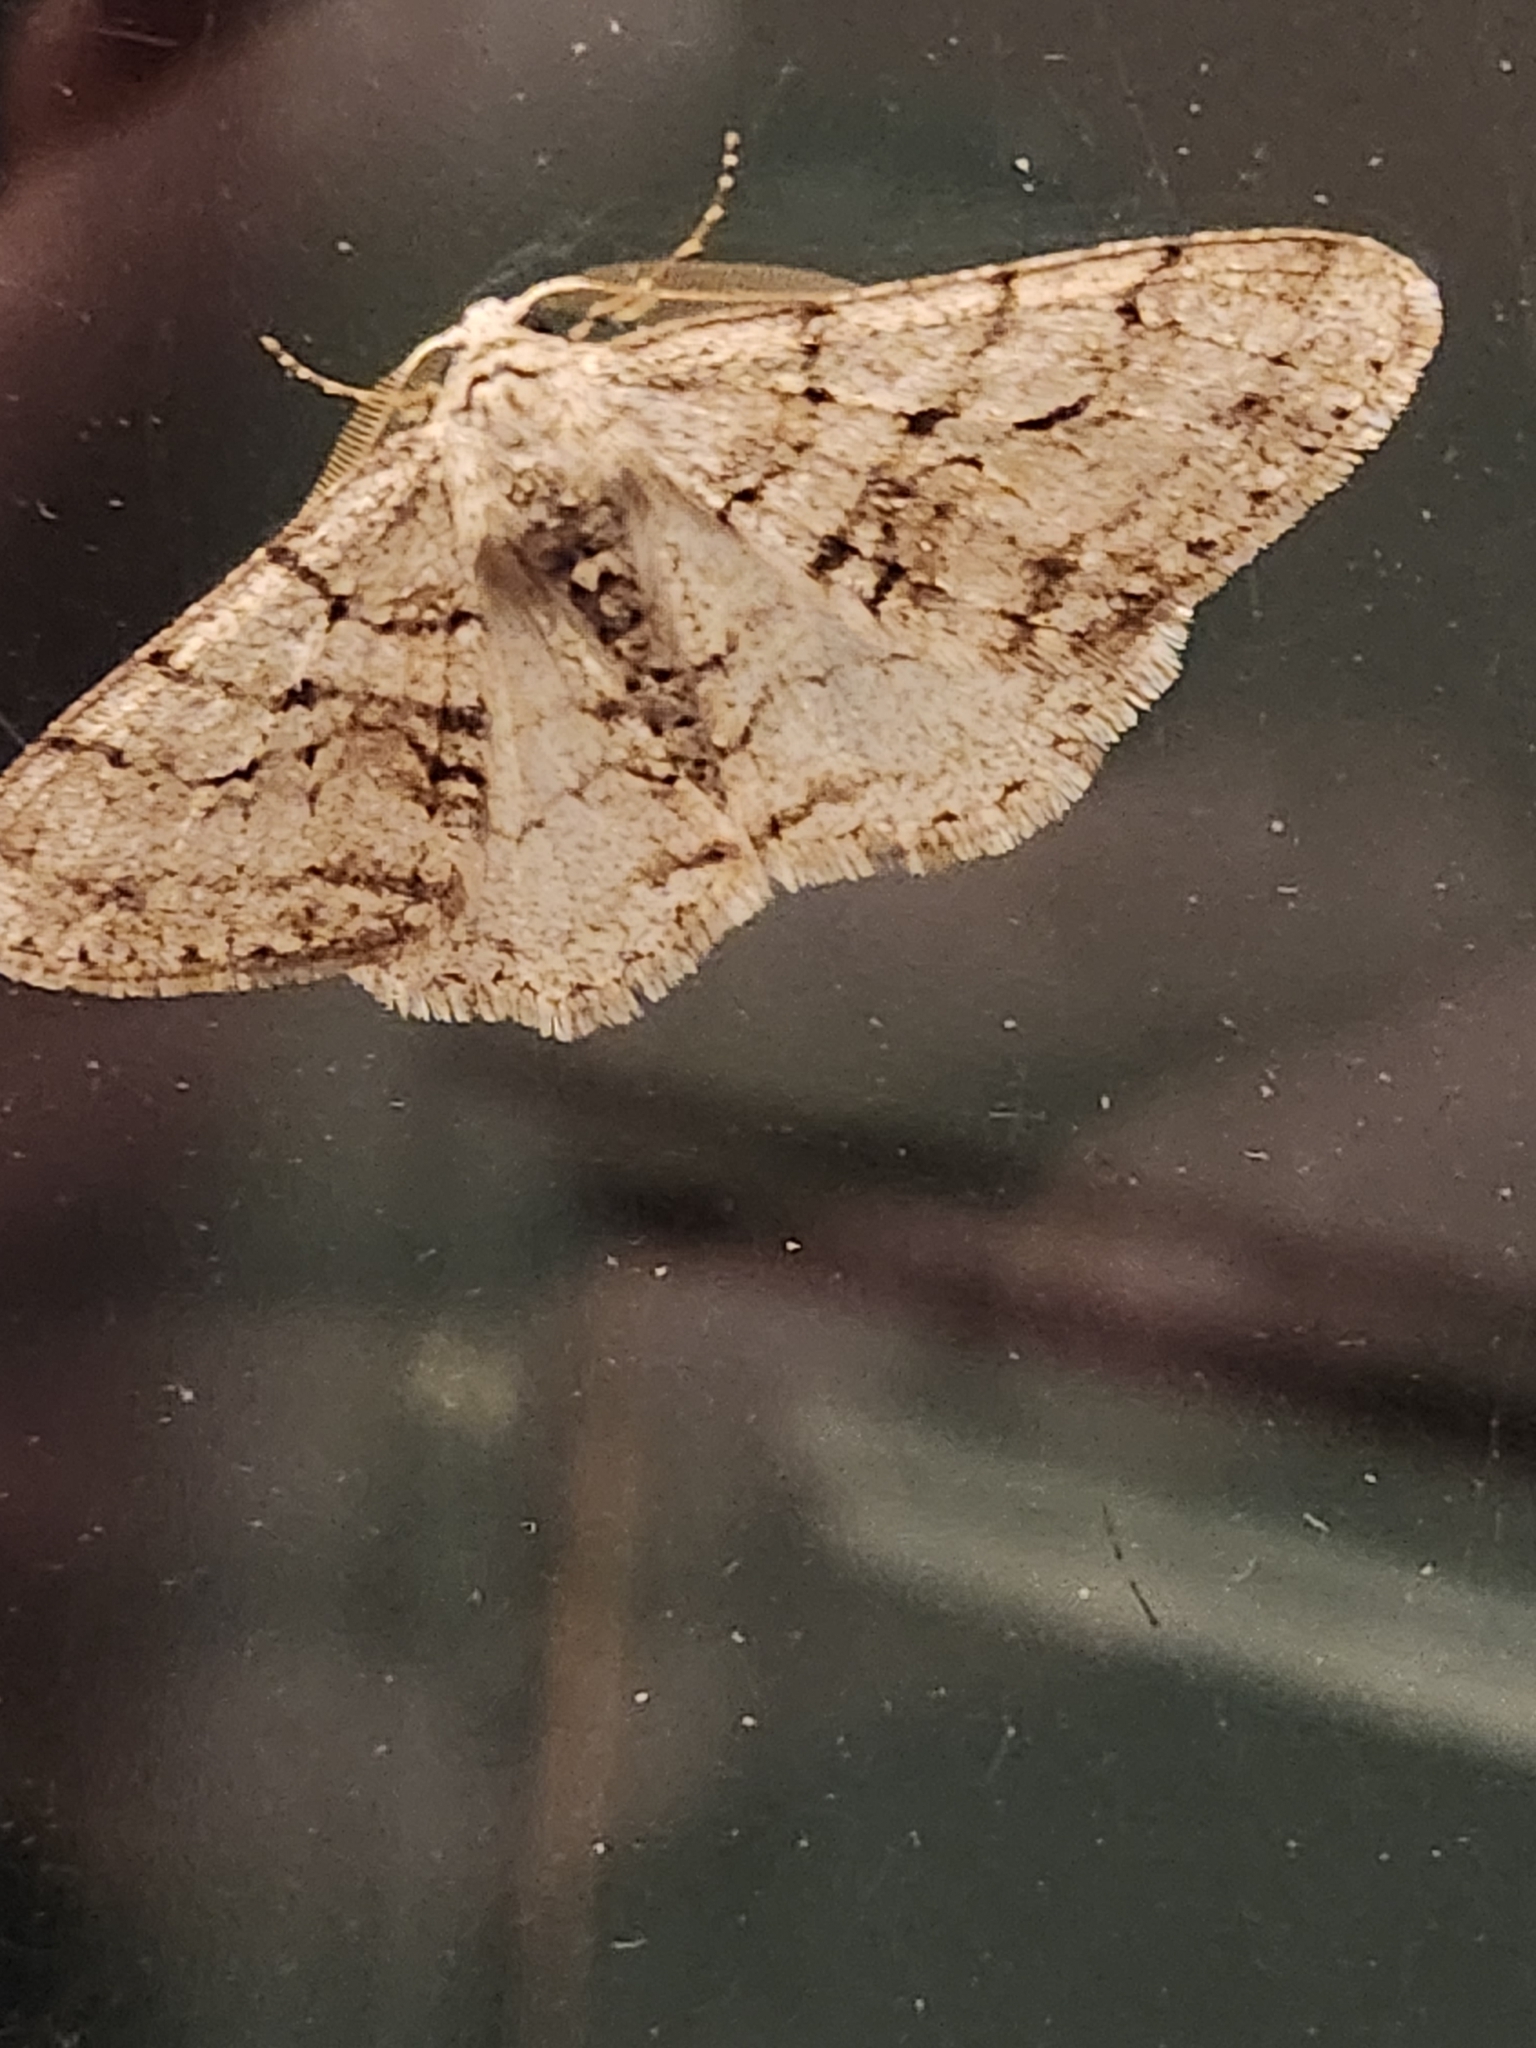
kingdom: Animalia
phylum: Arthropoda
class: Insecta
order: Lepidoptera
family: Geometridae
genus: Phigalia
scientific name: Phigalia titea
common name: Spiny looper
